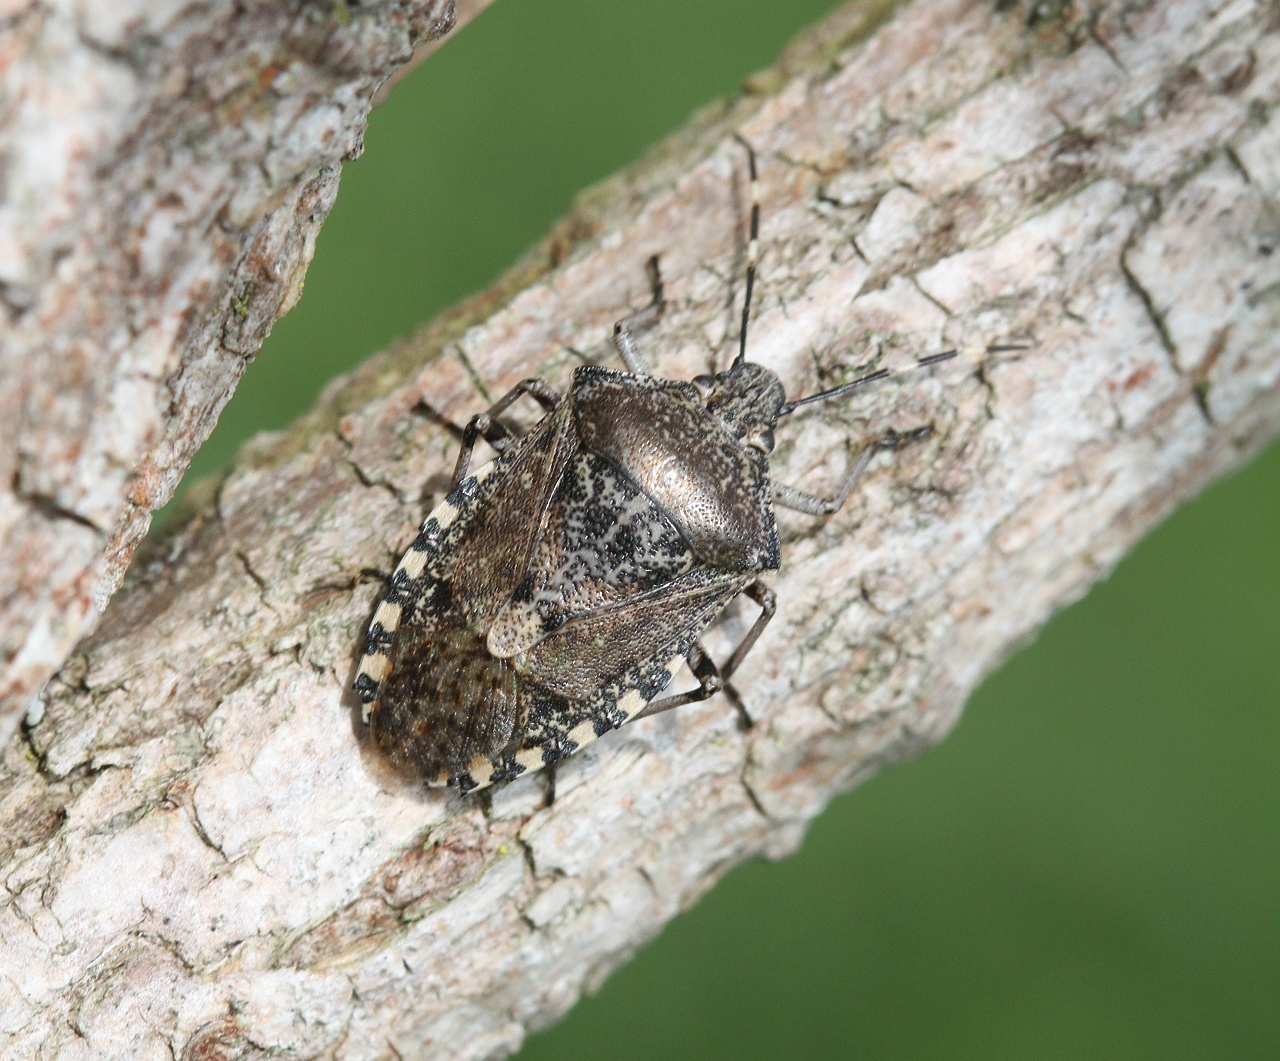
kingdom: Animalia
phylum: Arthropoda
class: Insecta
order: Hemiptera
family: Pentatomidae
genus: Rhaphigaster
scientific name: Rhaphigaster nebulosa
